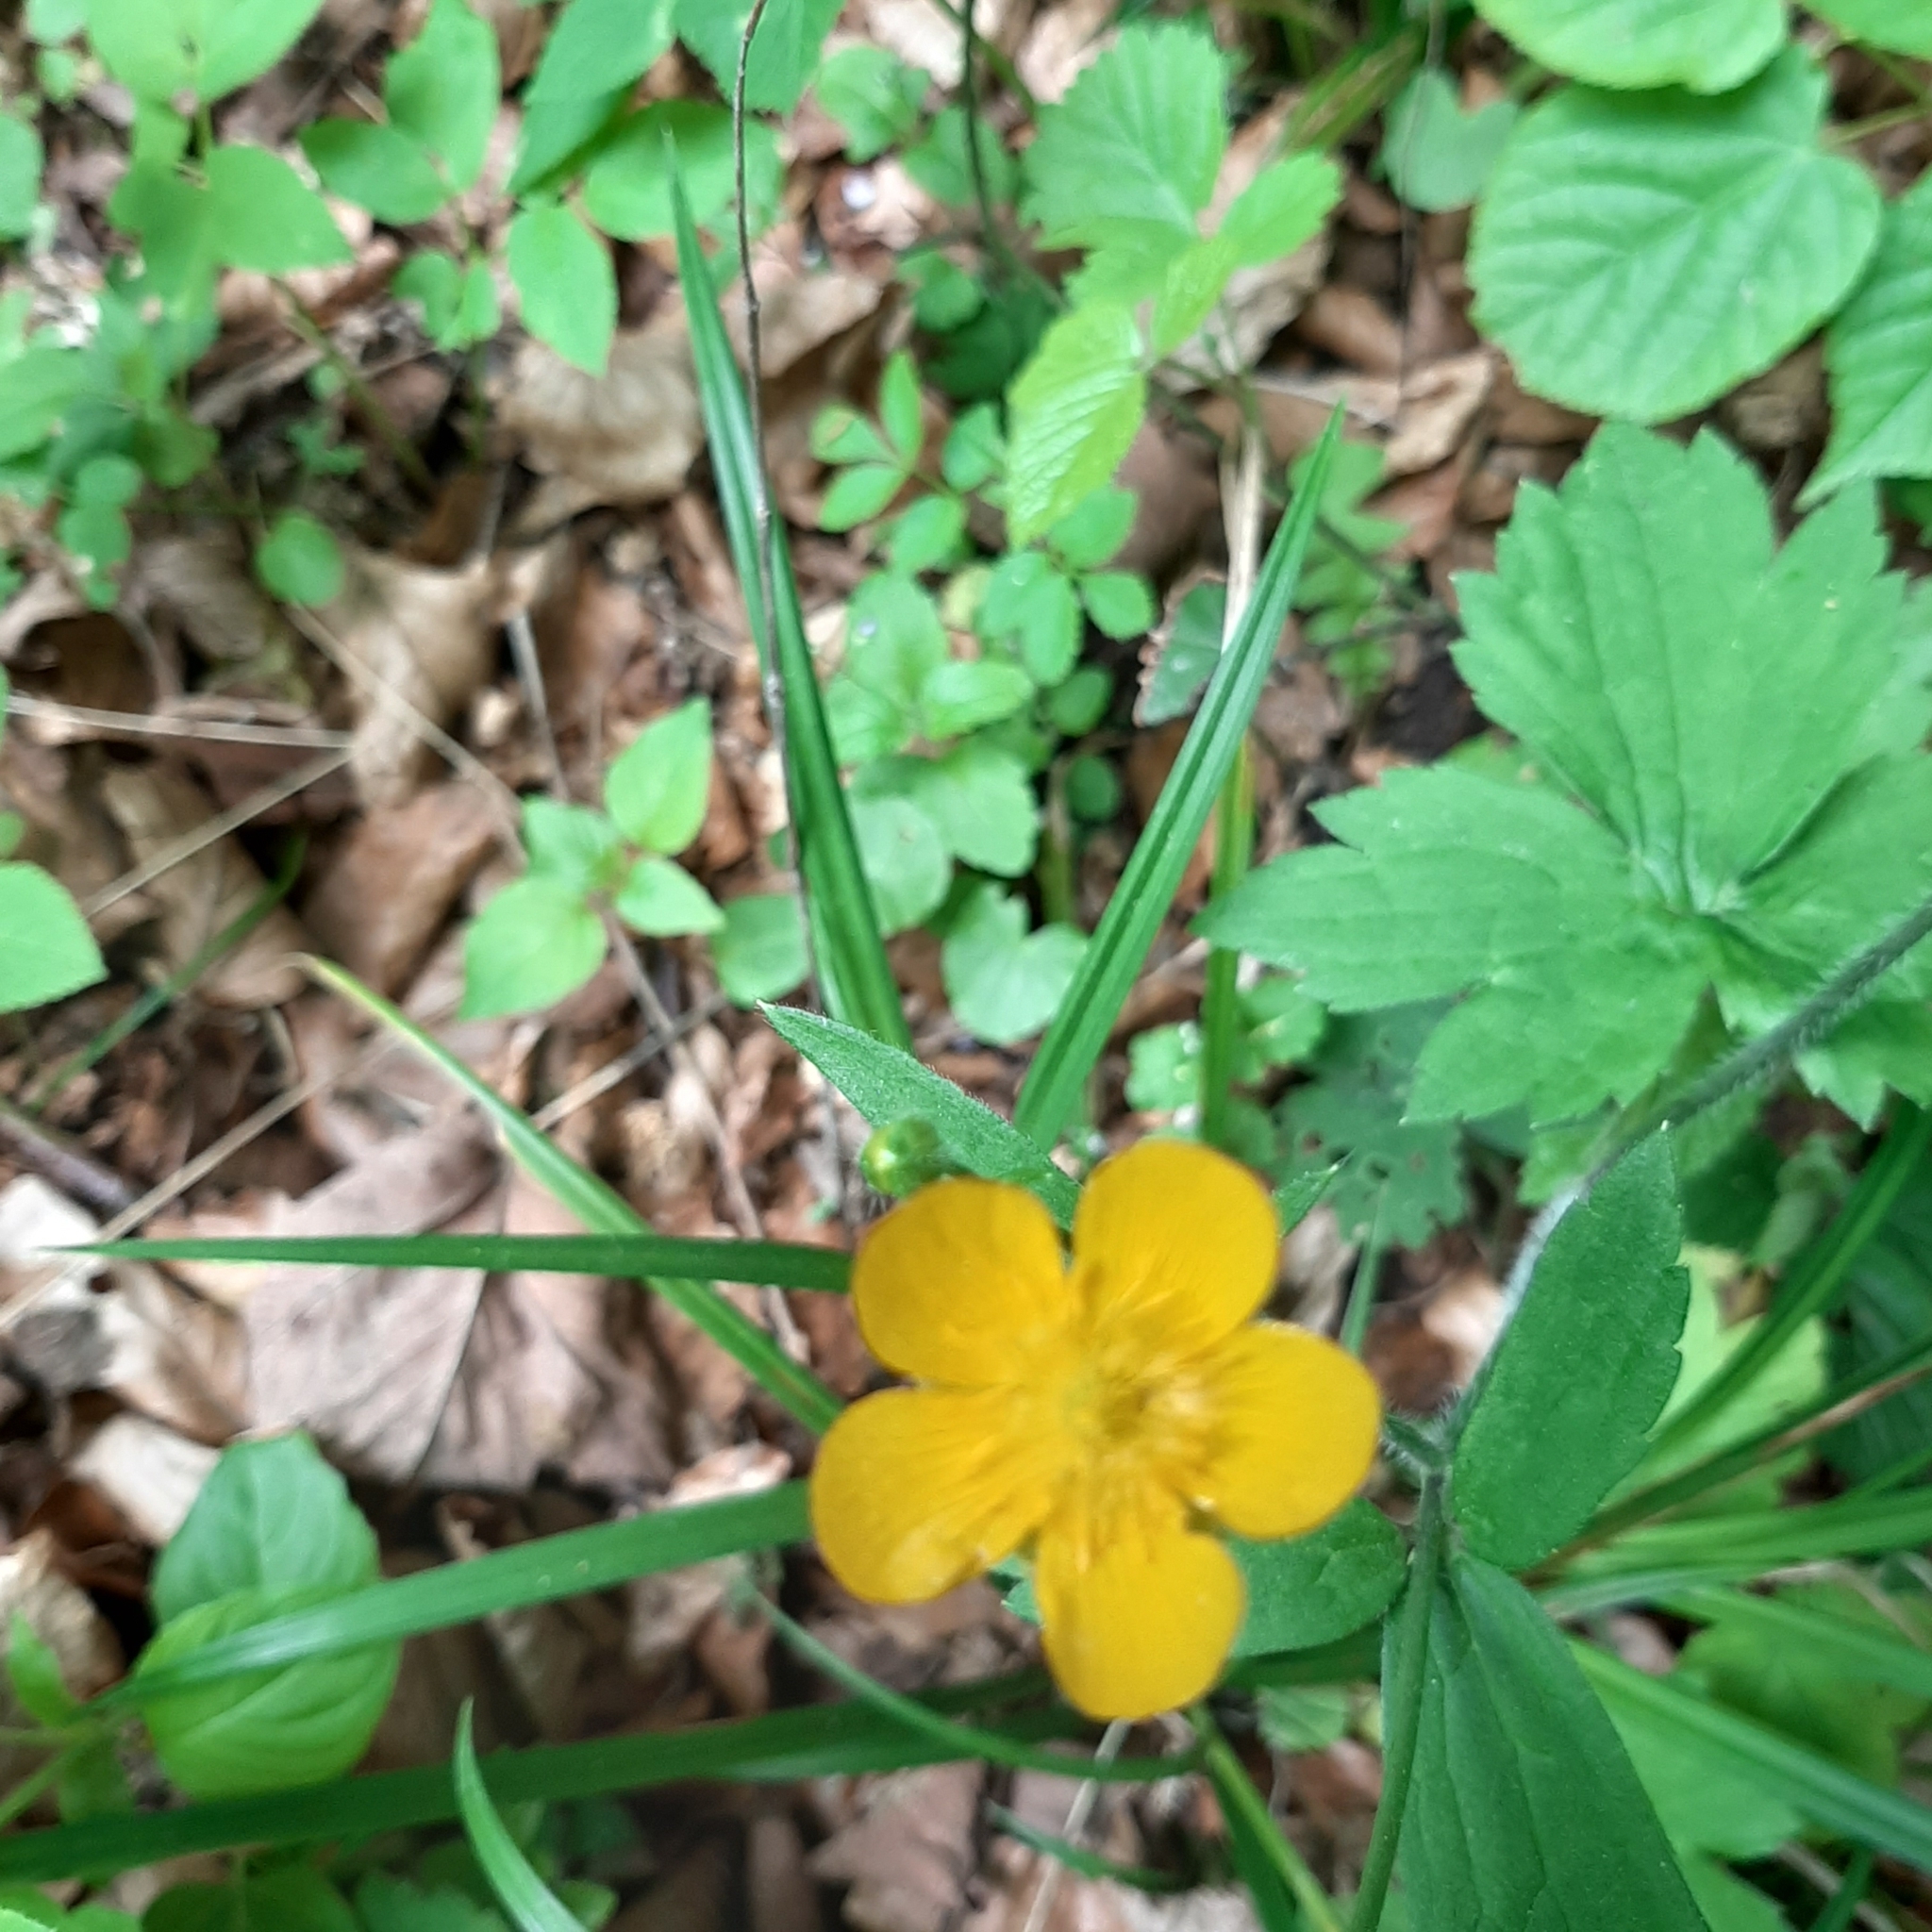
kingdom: Plantae
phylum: Tracheophyta
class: Magnoliopsida
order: Ranunculales
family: Ranunculaceae
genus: Ranunculus
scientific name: Ranunculus lanuginosus
